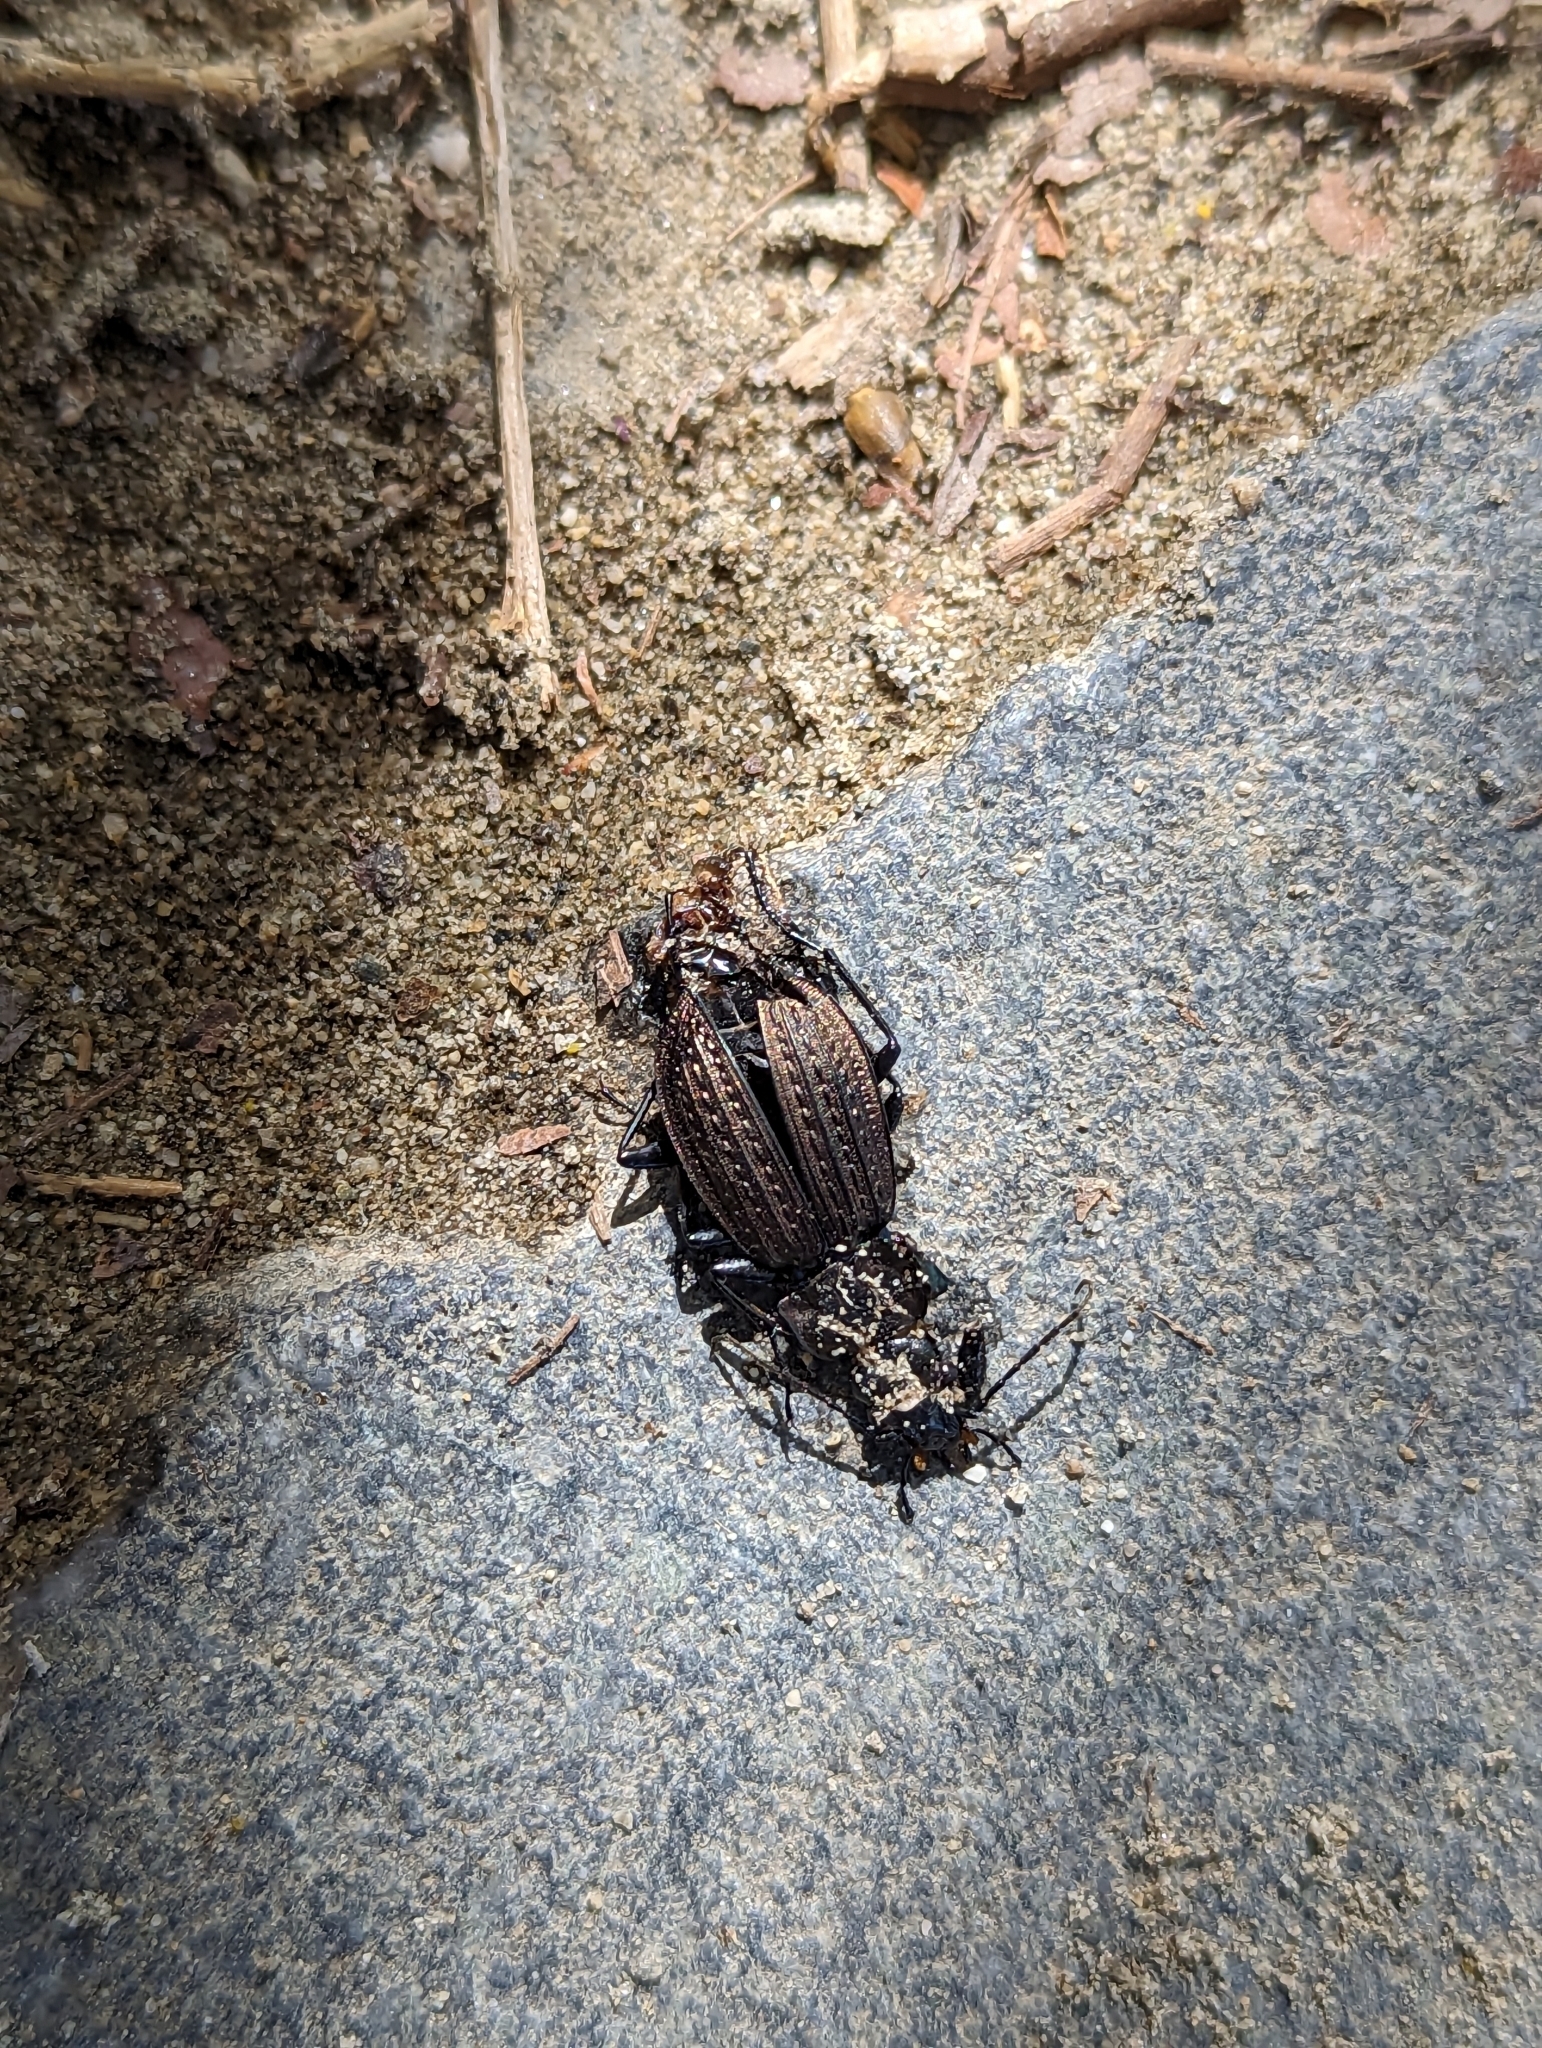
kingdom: Animalia
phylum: Arthropoda
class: Insecta
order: Coleoptera
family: Carabidae
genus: Carabus
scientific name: Carabus granulatus
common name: Granulate ground beetle
